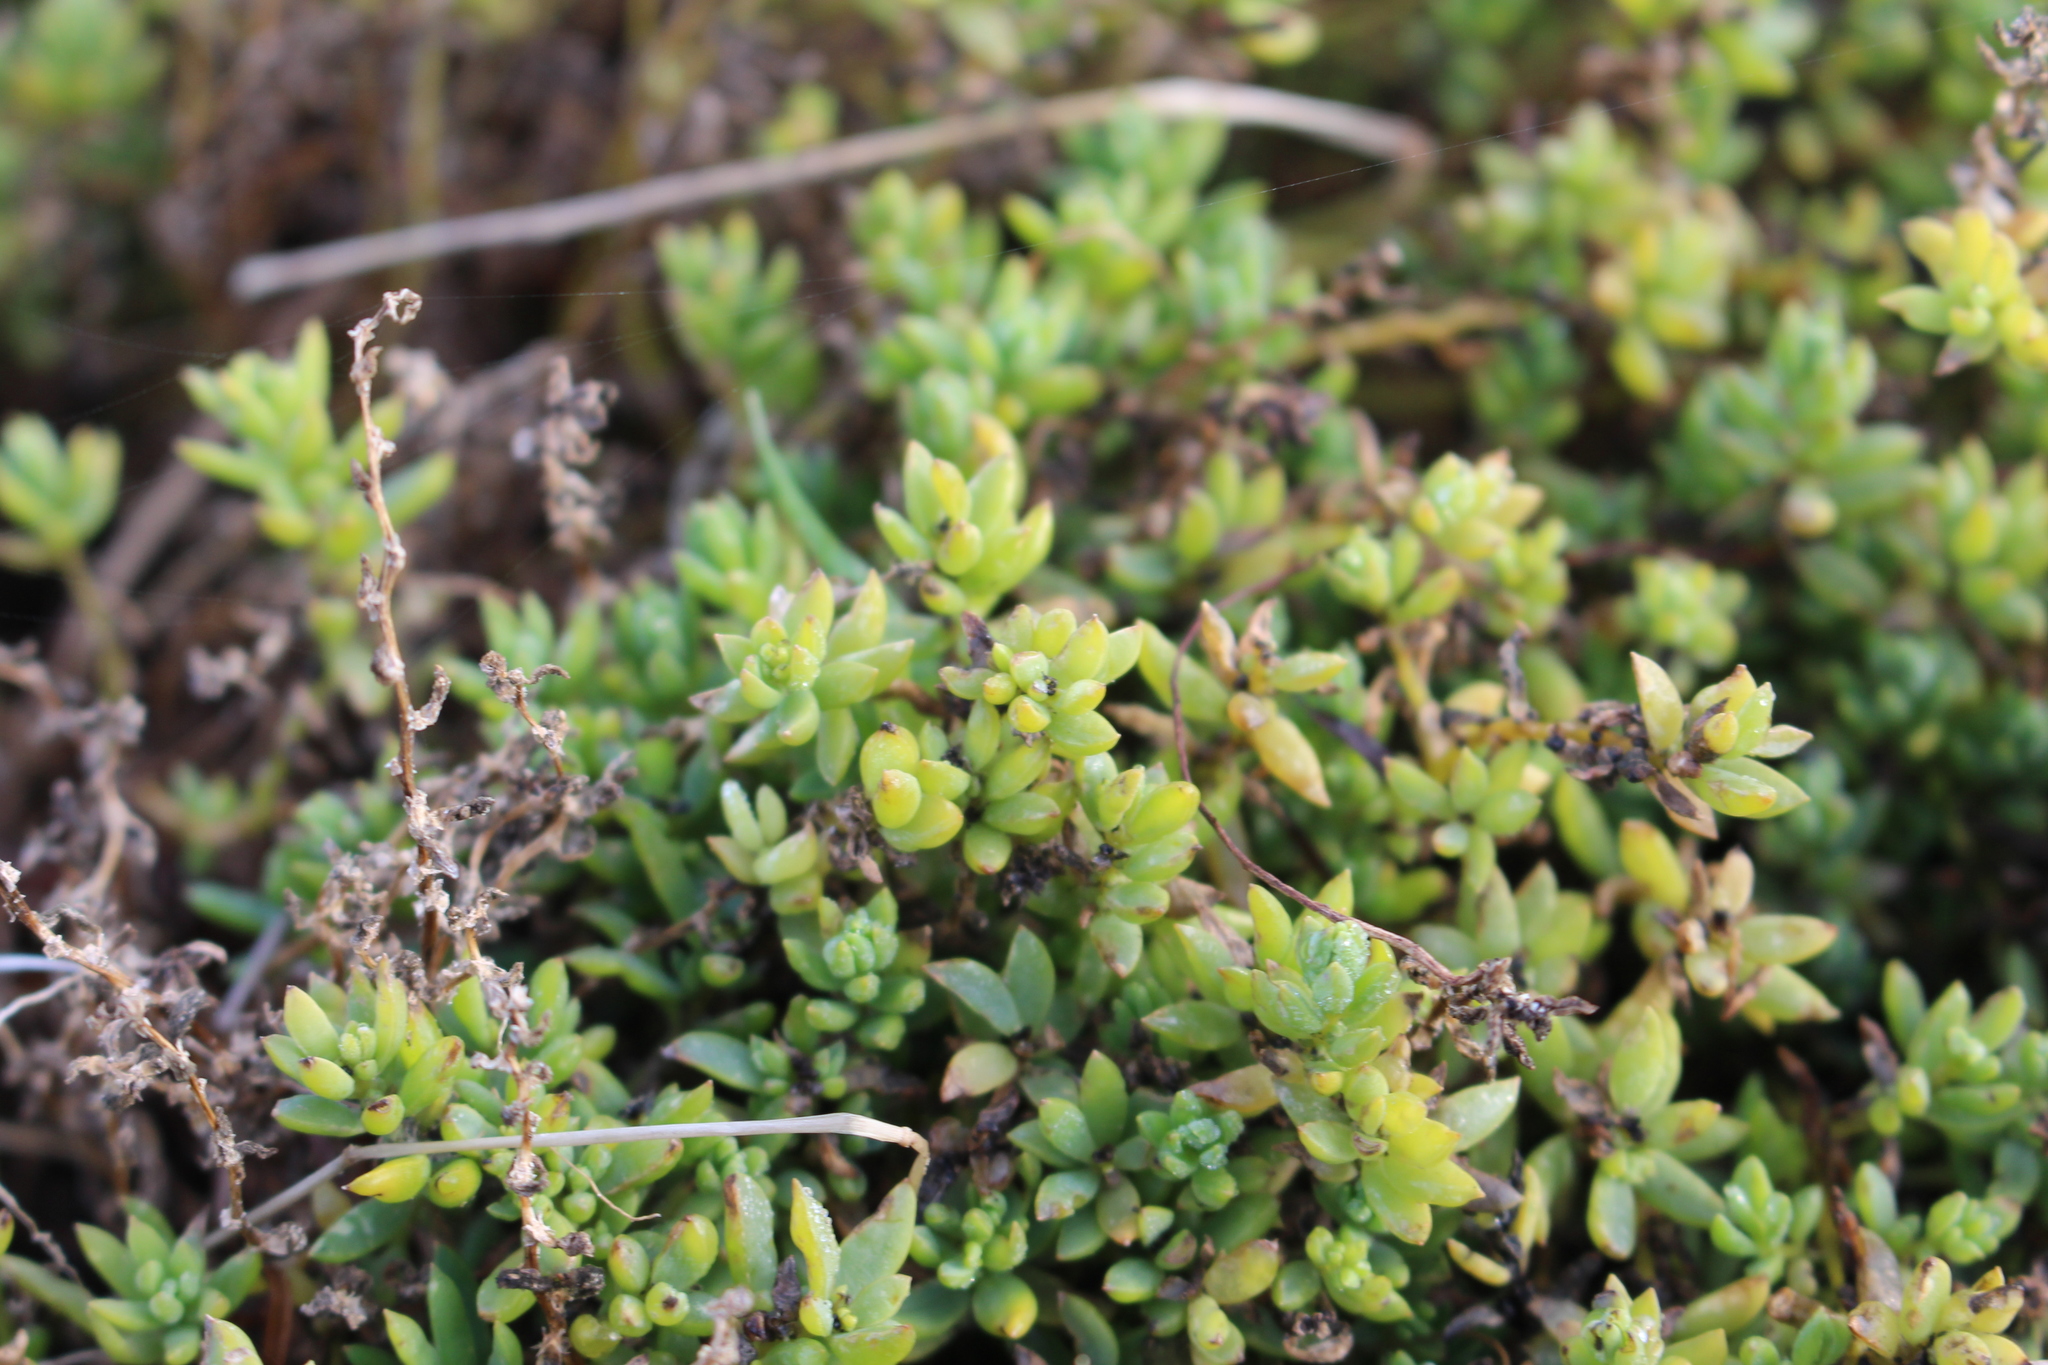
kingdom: Plantae
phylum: Tracheophyta
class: Magnoliopsida
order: Caryophyllales
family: Amaranthaceae
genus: Suaeda
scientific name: Suaeda novae-zelandiae
